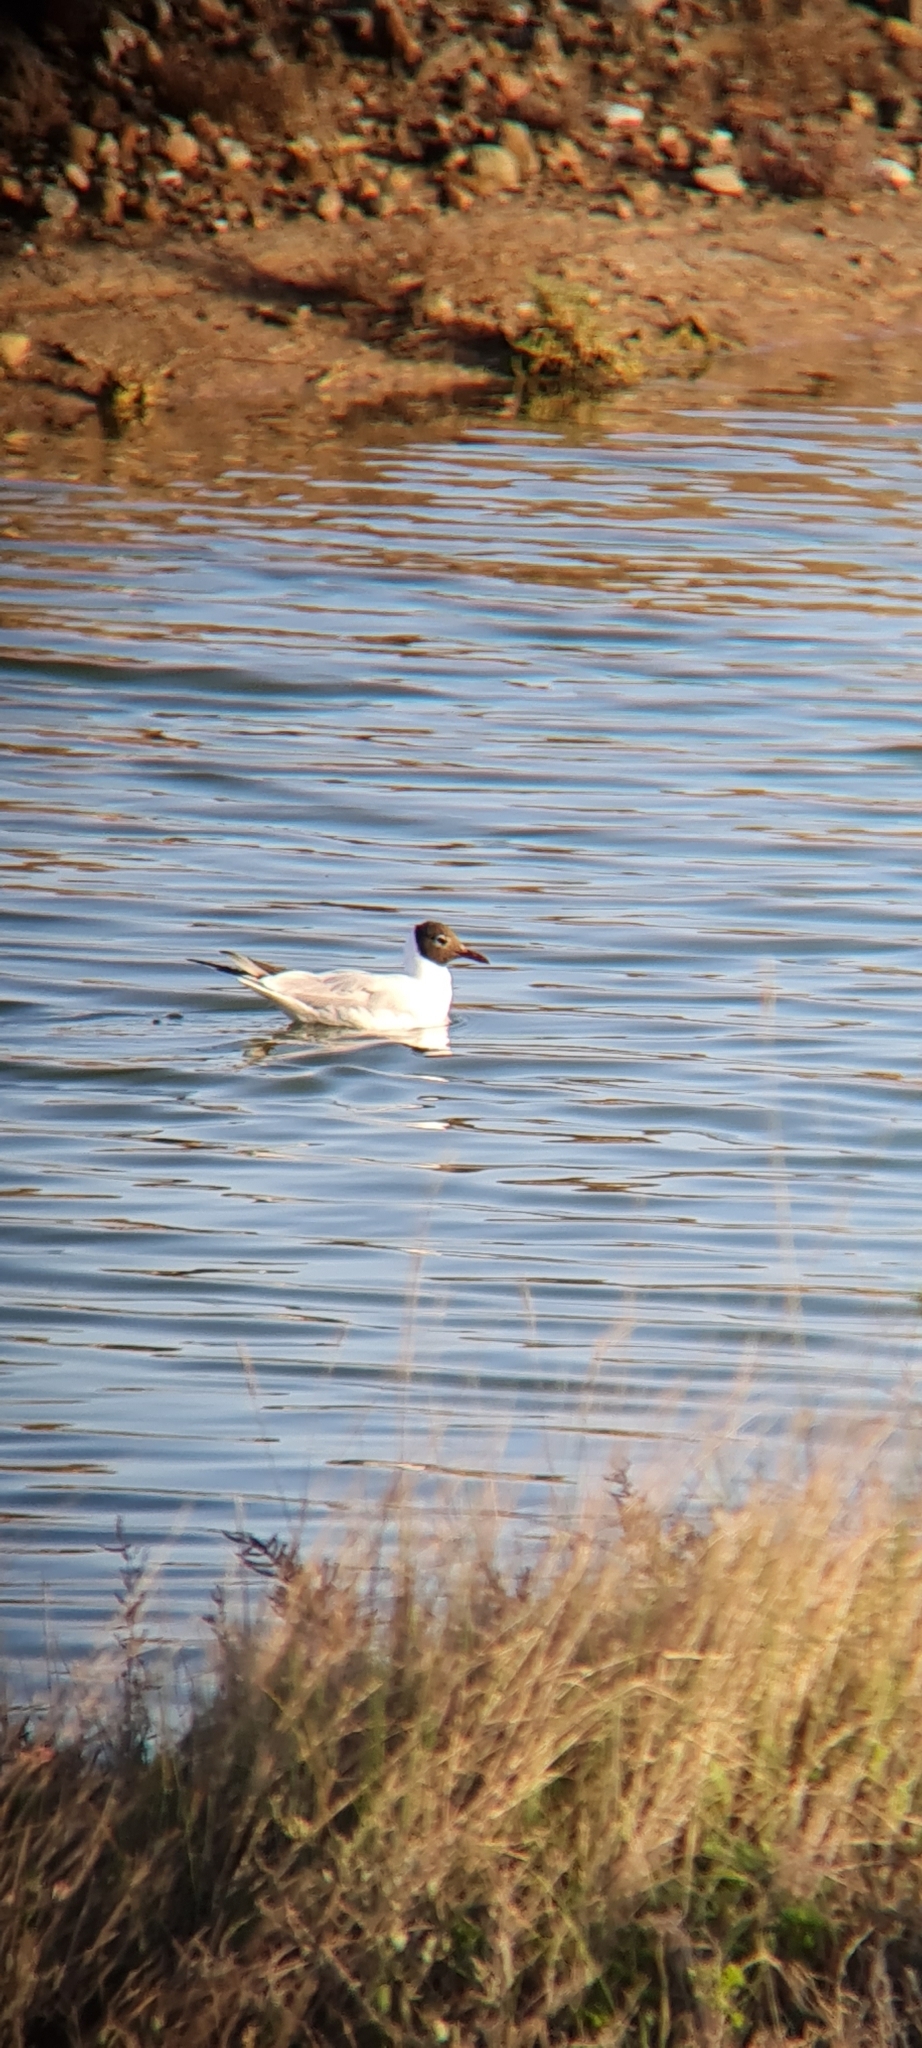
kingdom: Animalia
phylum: Chordata
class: Aves
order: Charadriiformes
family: Laridae
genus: Chroicocephalus
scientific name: Chroicocephalus ridibundus
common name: Black-headed gull
